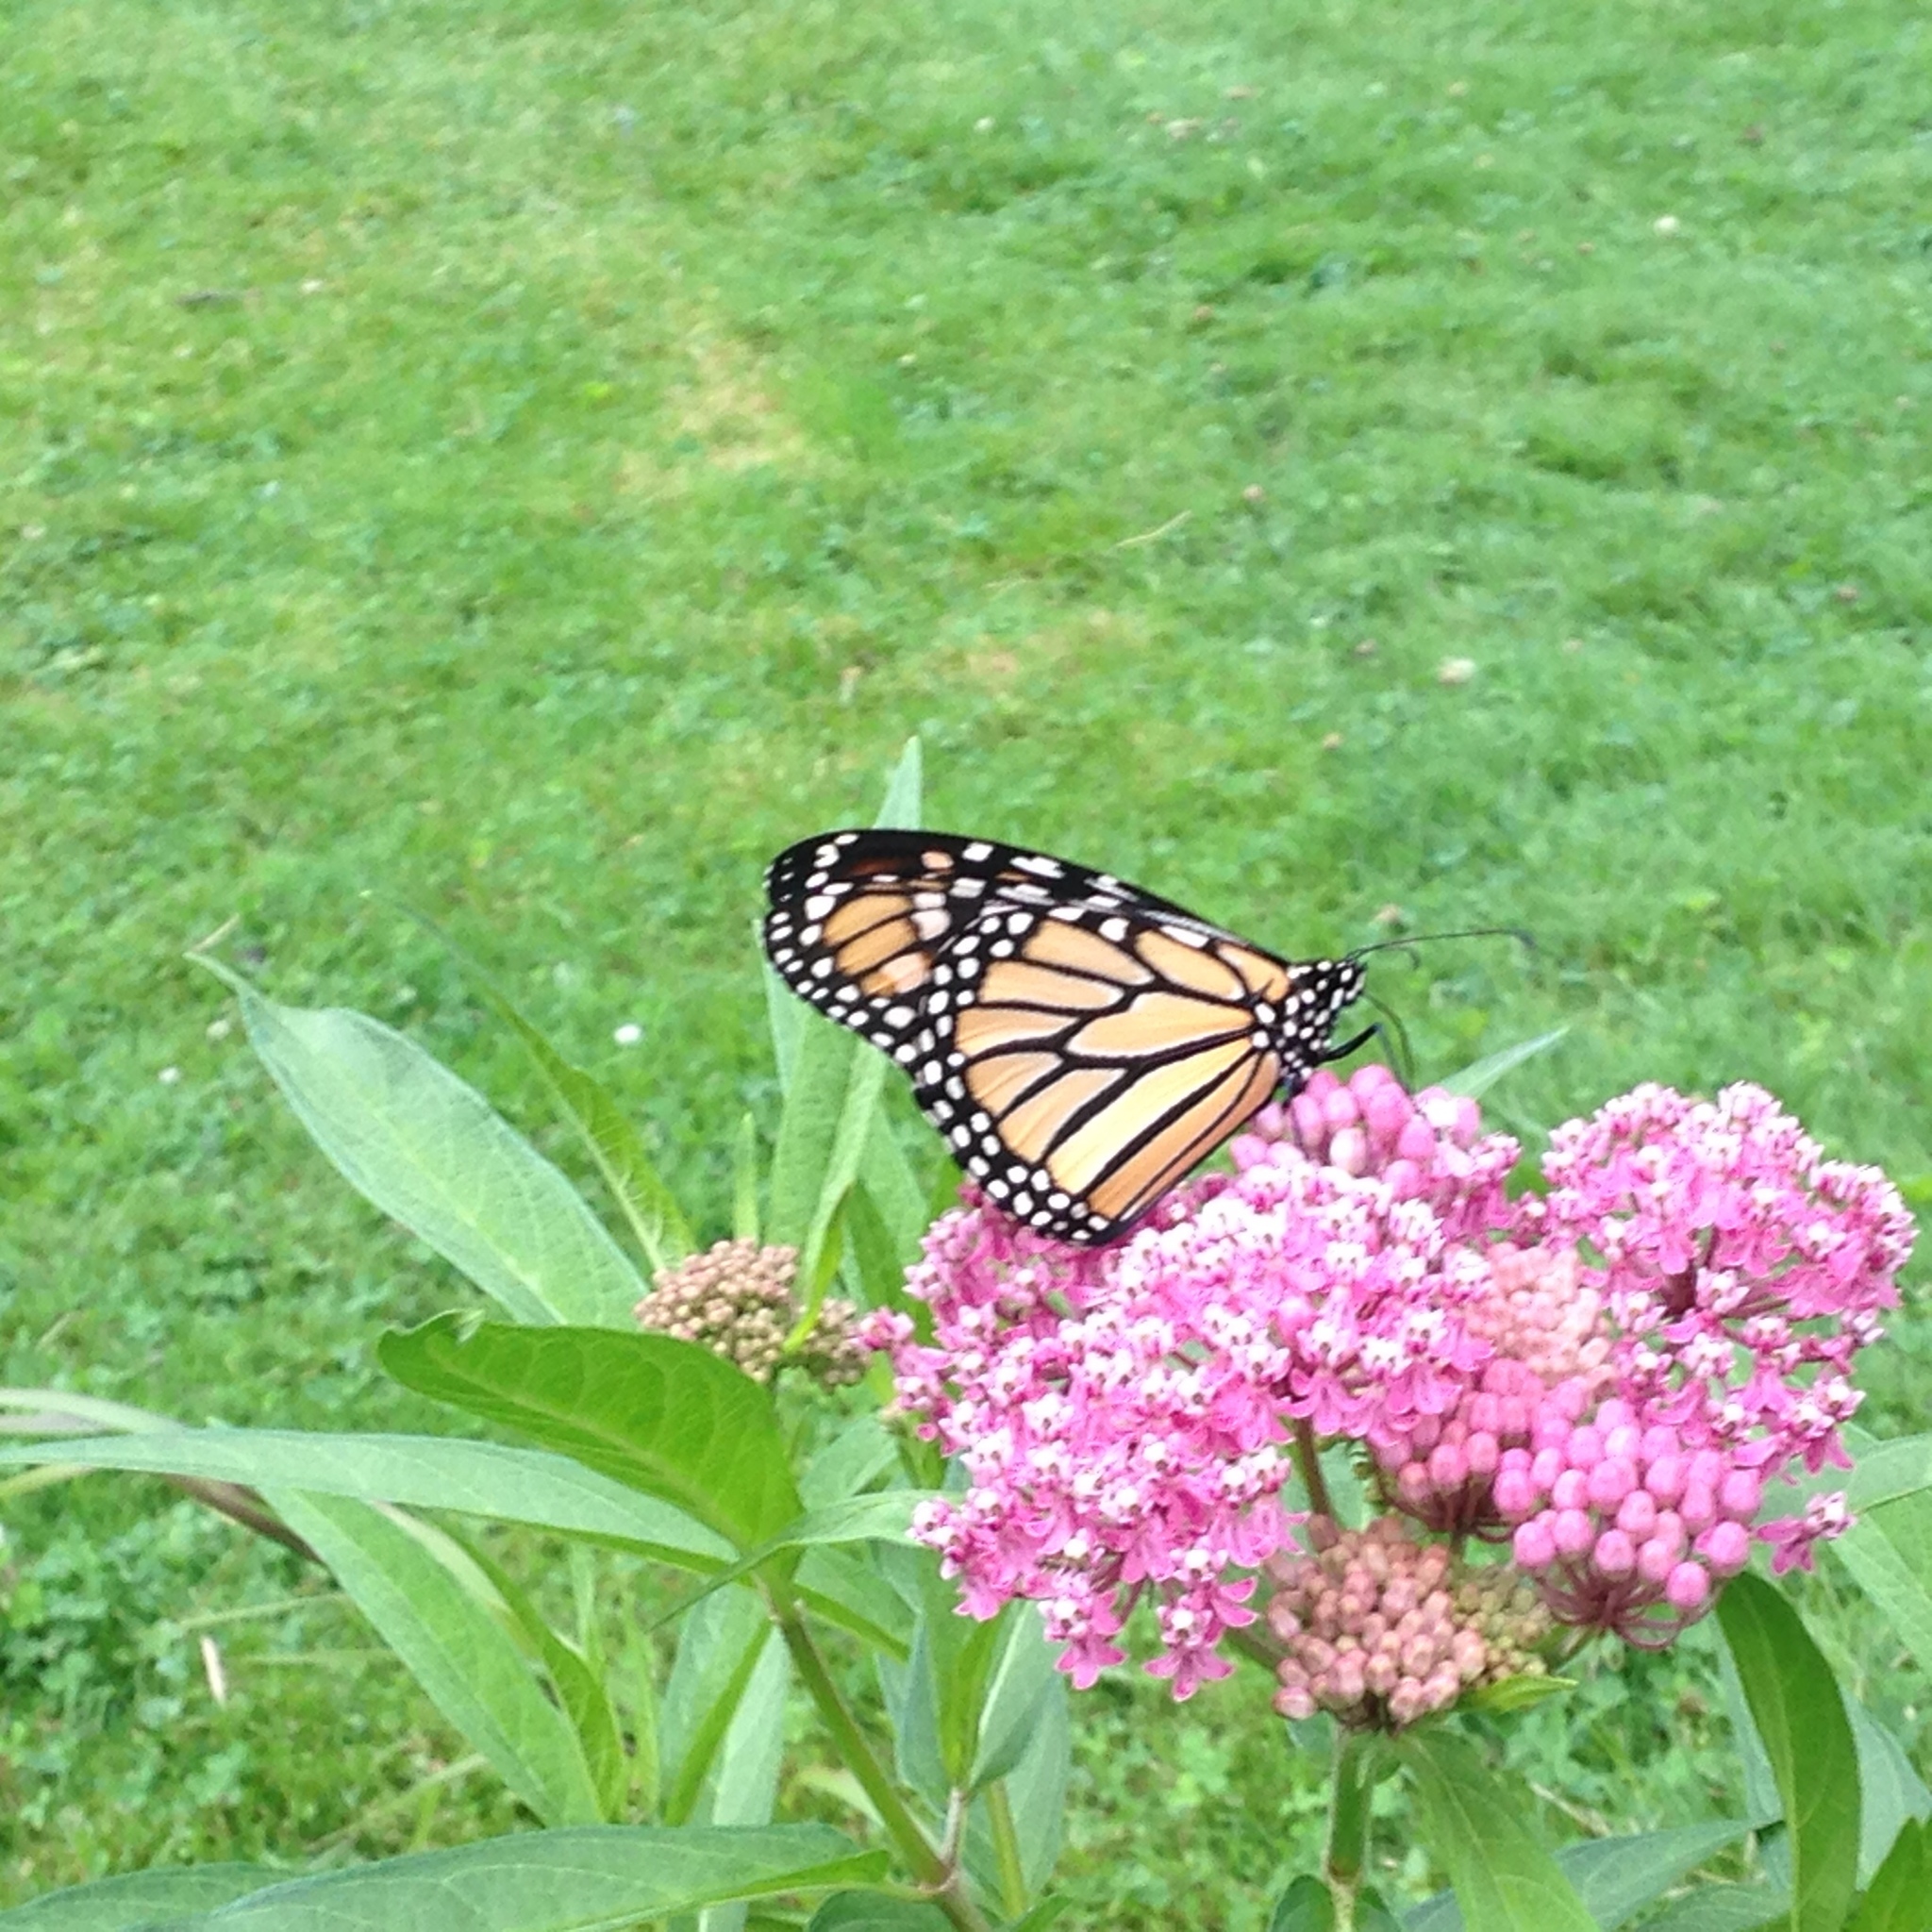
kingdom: Animalia
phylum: Arthropoda
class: Insecta
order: Lepidoptera
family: Nymphalidae
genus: Danaus
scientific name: Danaus plexippus
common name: Monarch
